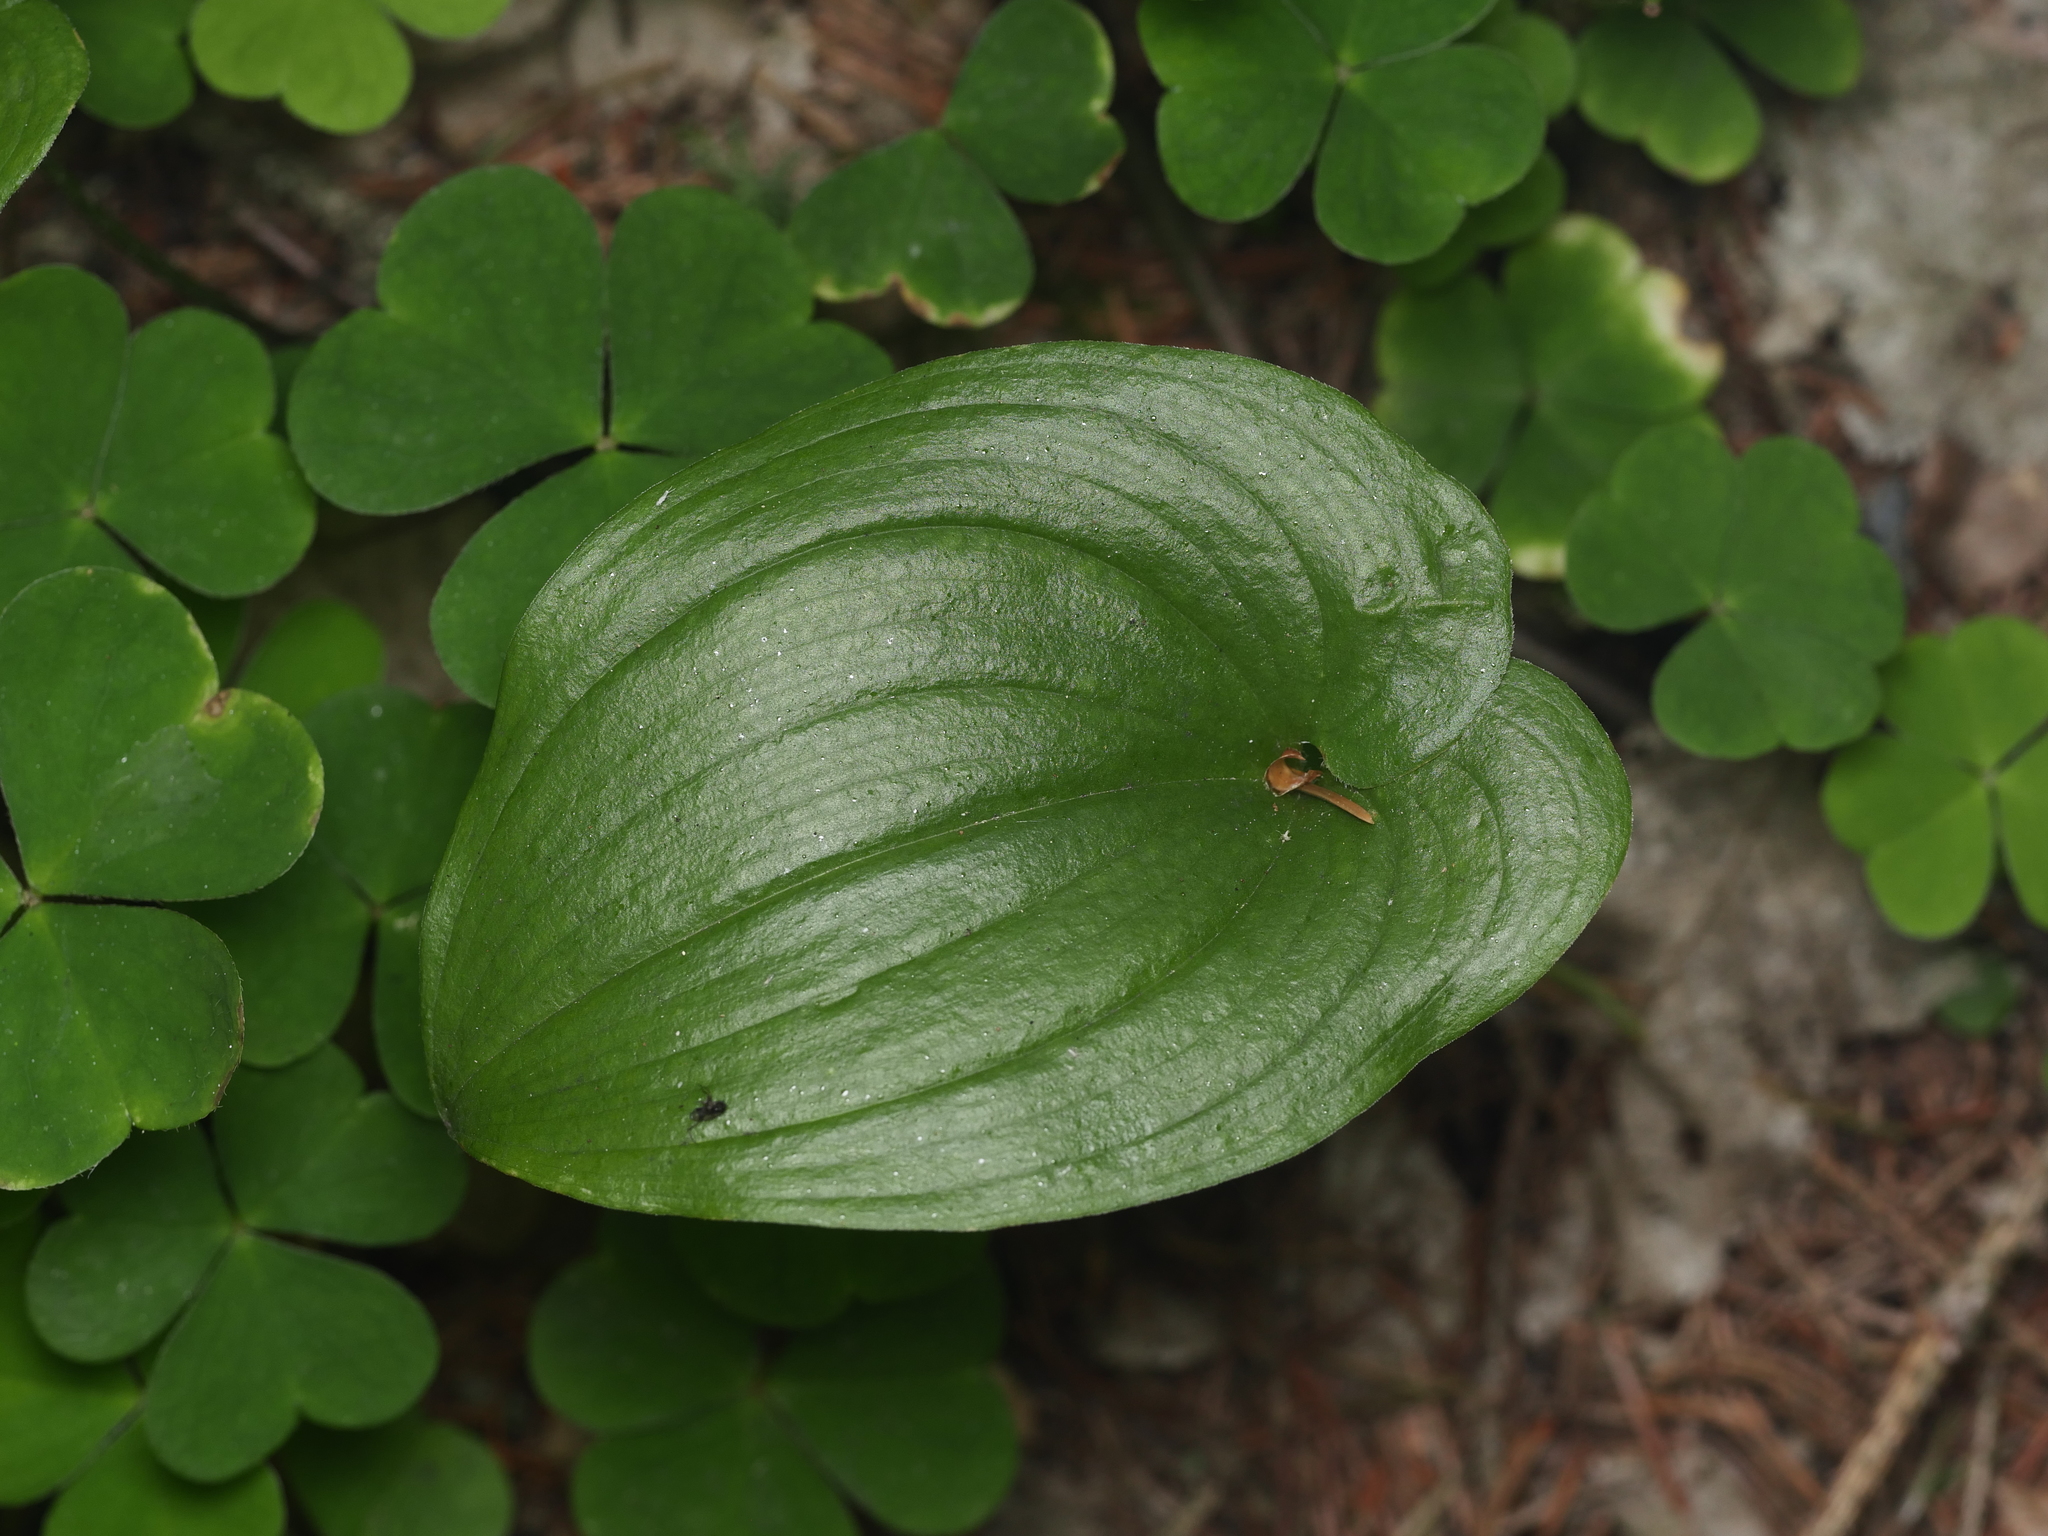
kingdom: Plantae
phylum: Tracheophyta
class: Liliopsida
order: Asparagales
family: Asparagaceae
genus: Maianthemum
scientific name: Maianthemum bifolium
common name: May lily
